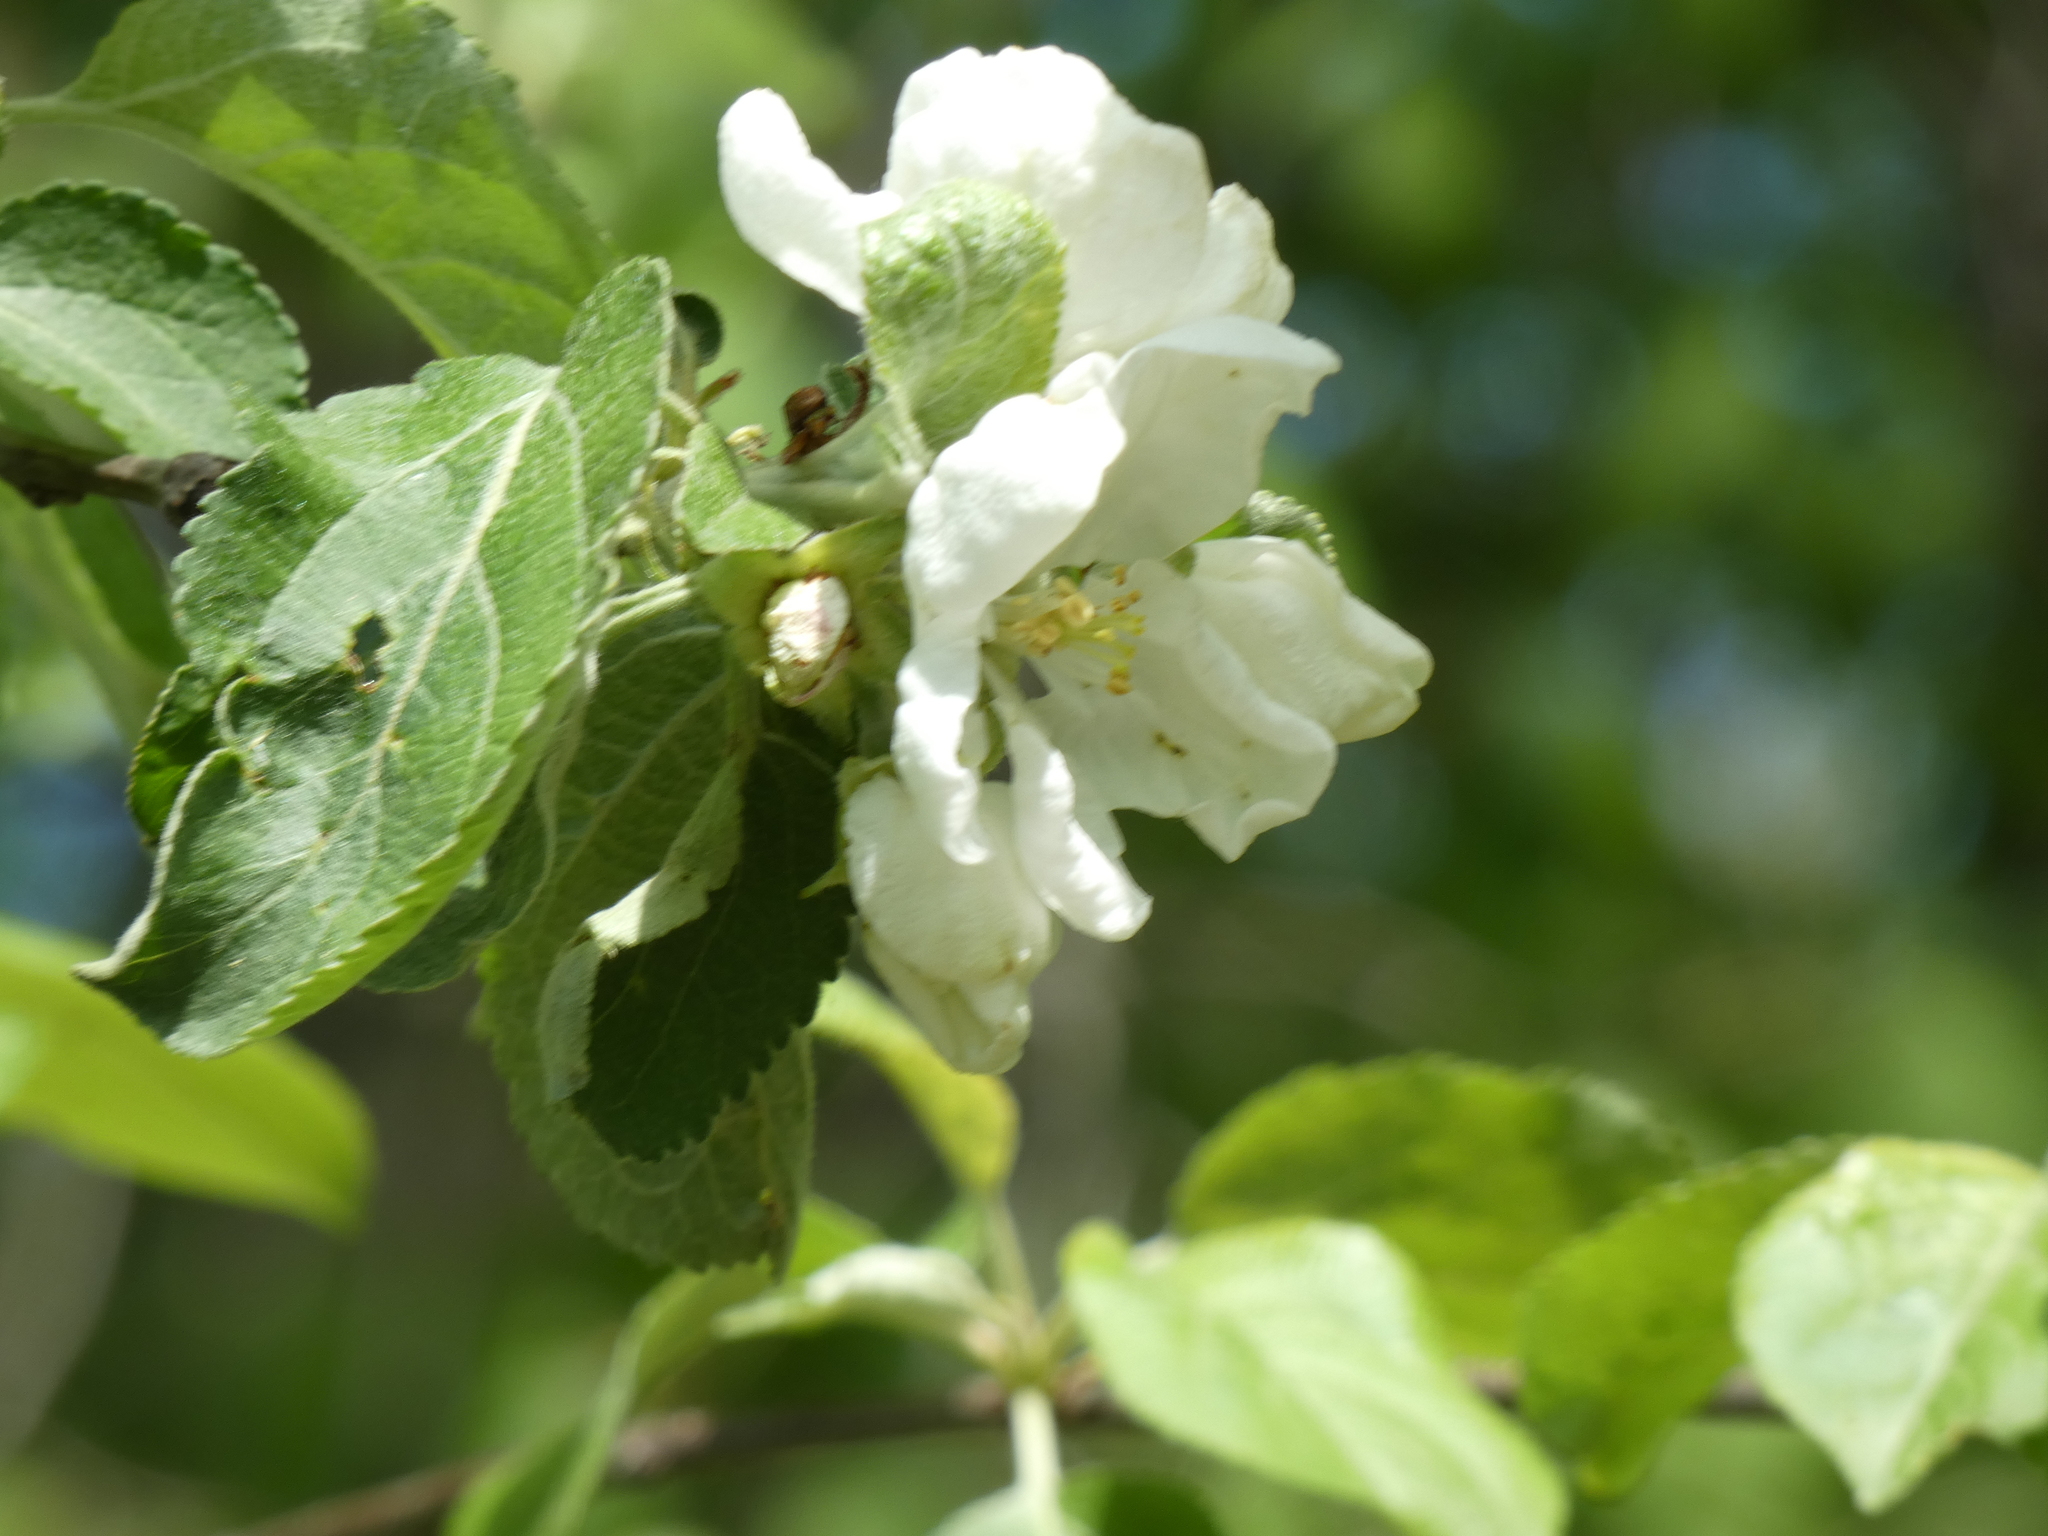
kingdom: Plantae
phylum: Tracheophyta
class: Magnoliopsida
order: Rosales
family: Rosaceae
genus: Malus
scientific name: Malus domestica
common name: Apple
